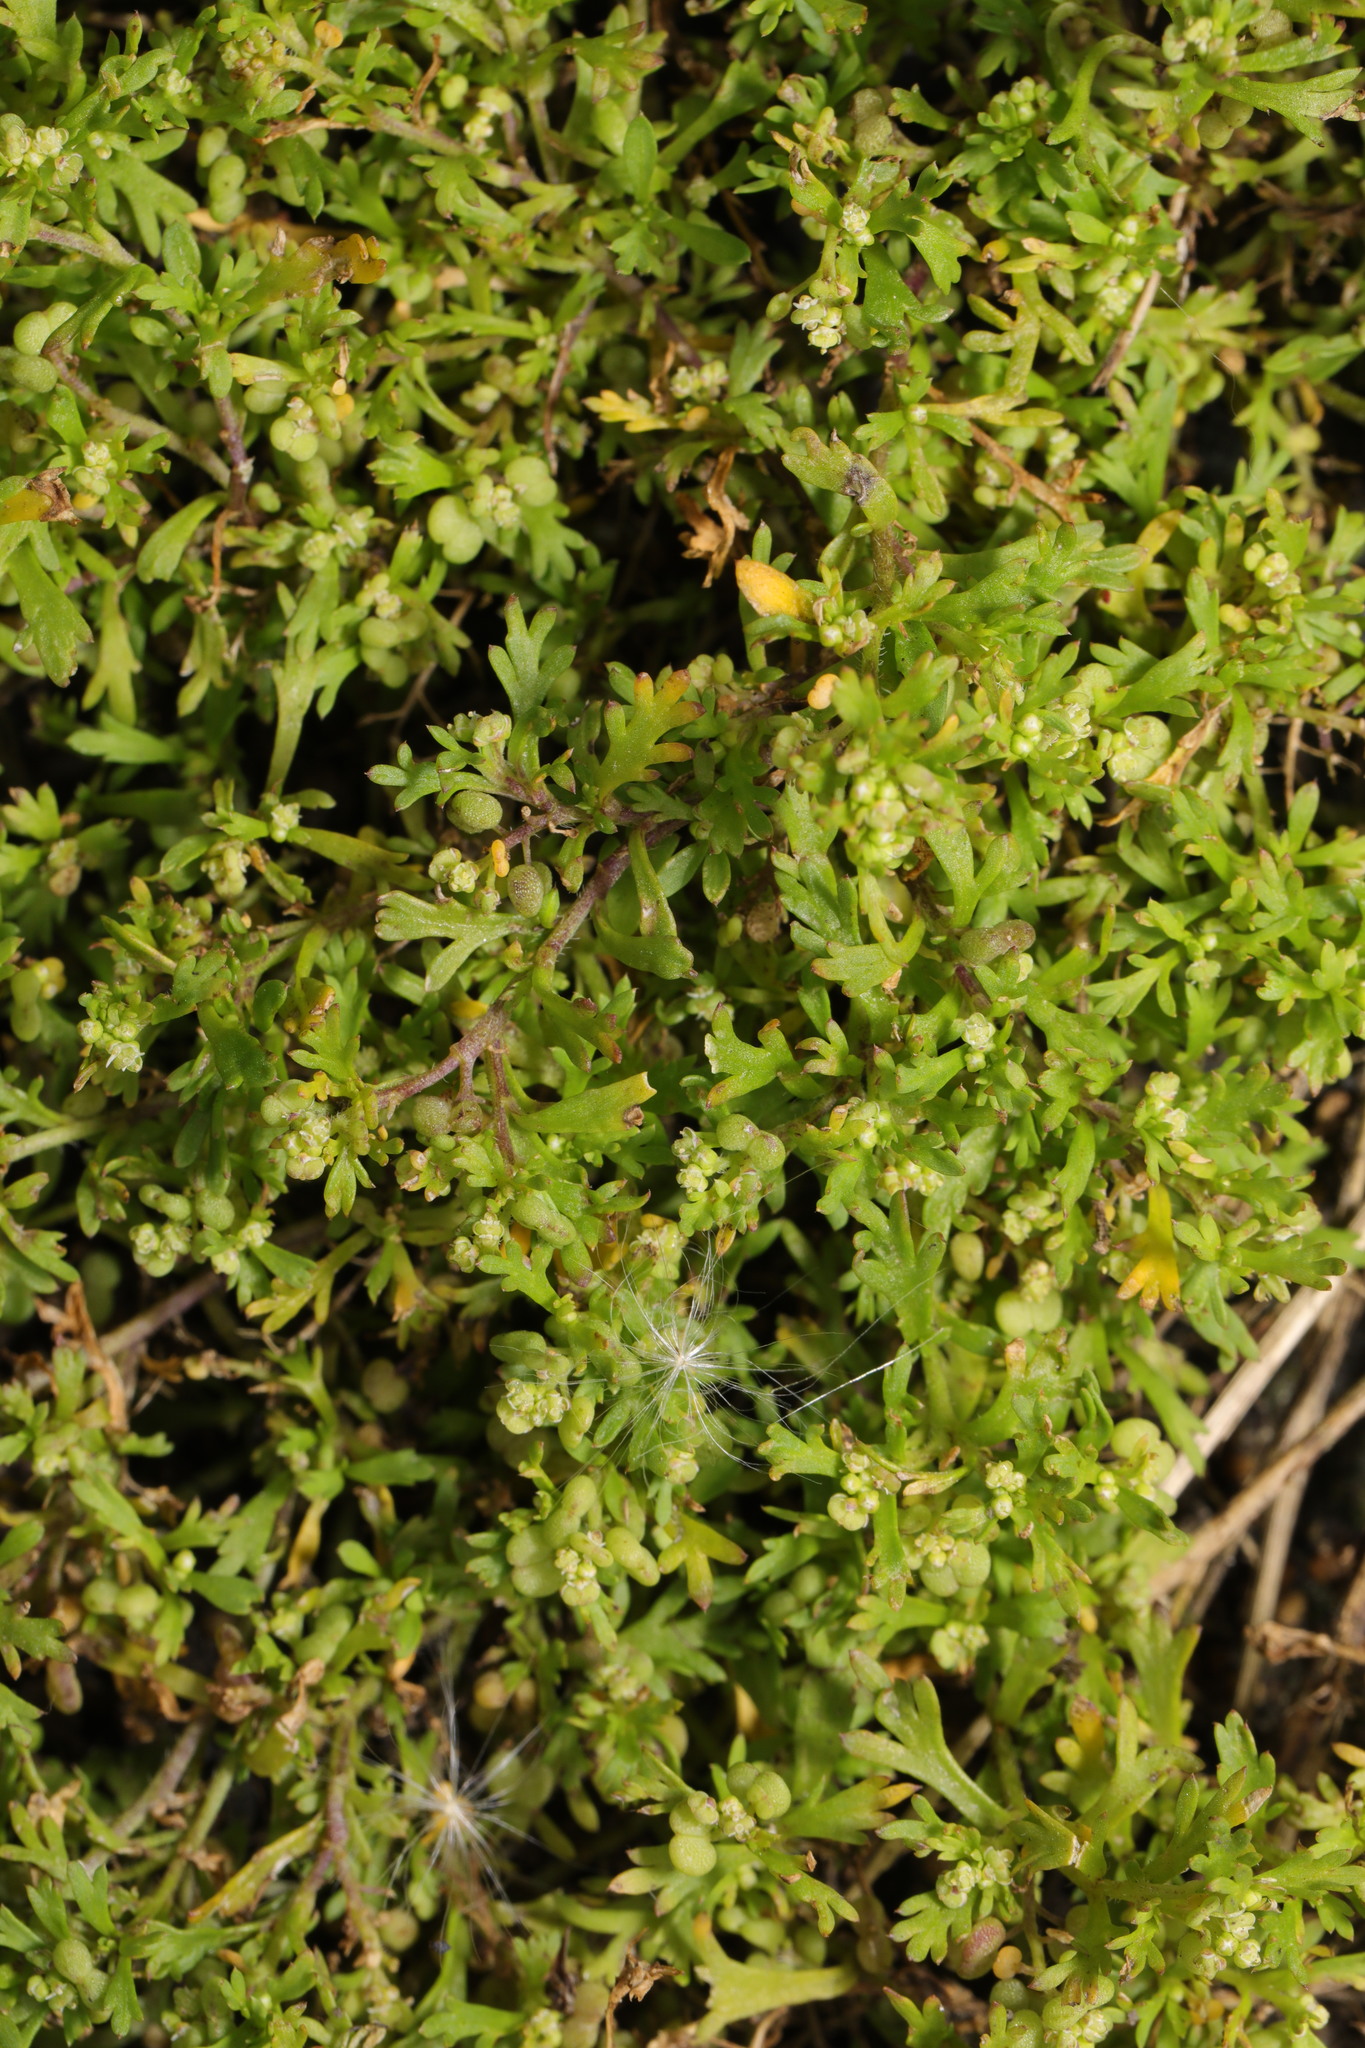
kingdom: Plantae
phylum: Tracheophyta
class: Magnoliopsida
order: Brassicales
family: Brassicaceae
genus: Lepidium
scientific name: Lepidium didymum
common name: Lesser swinecress
